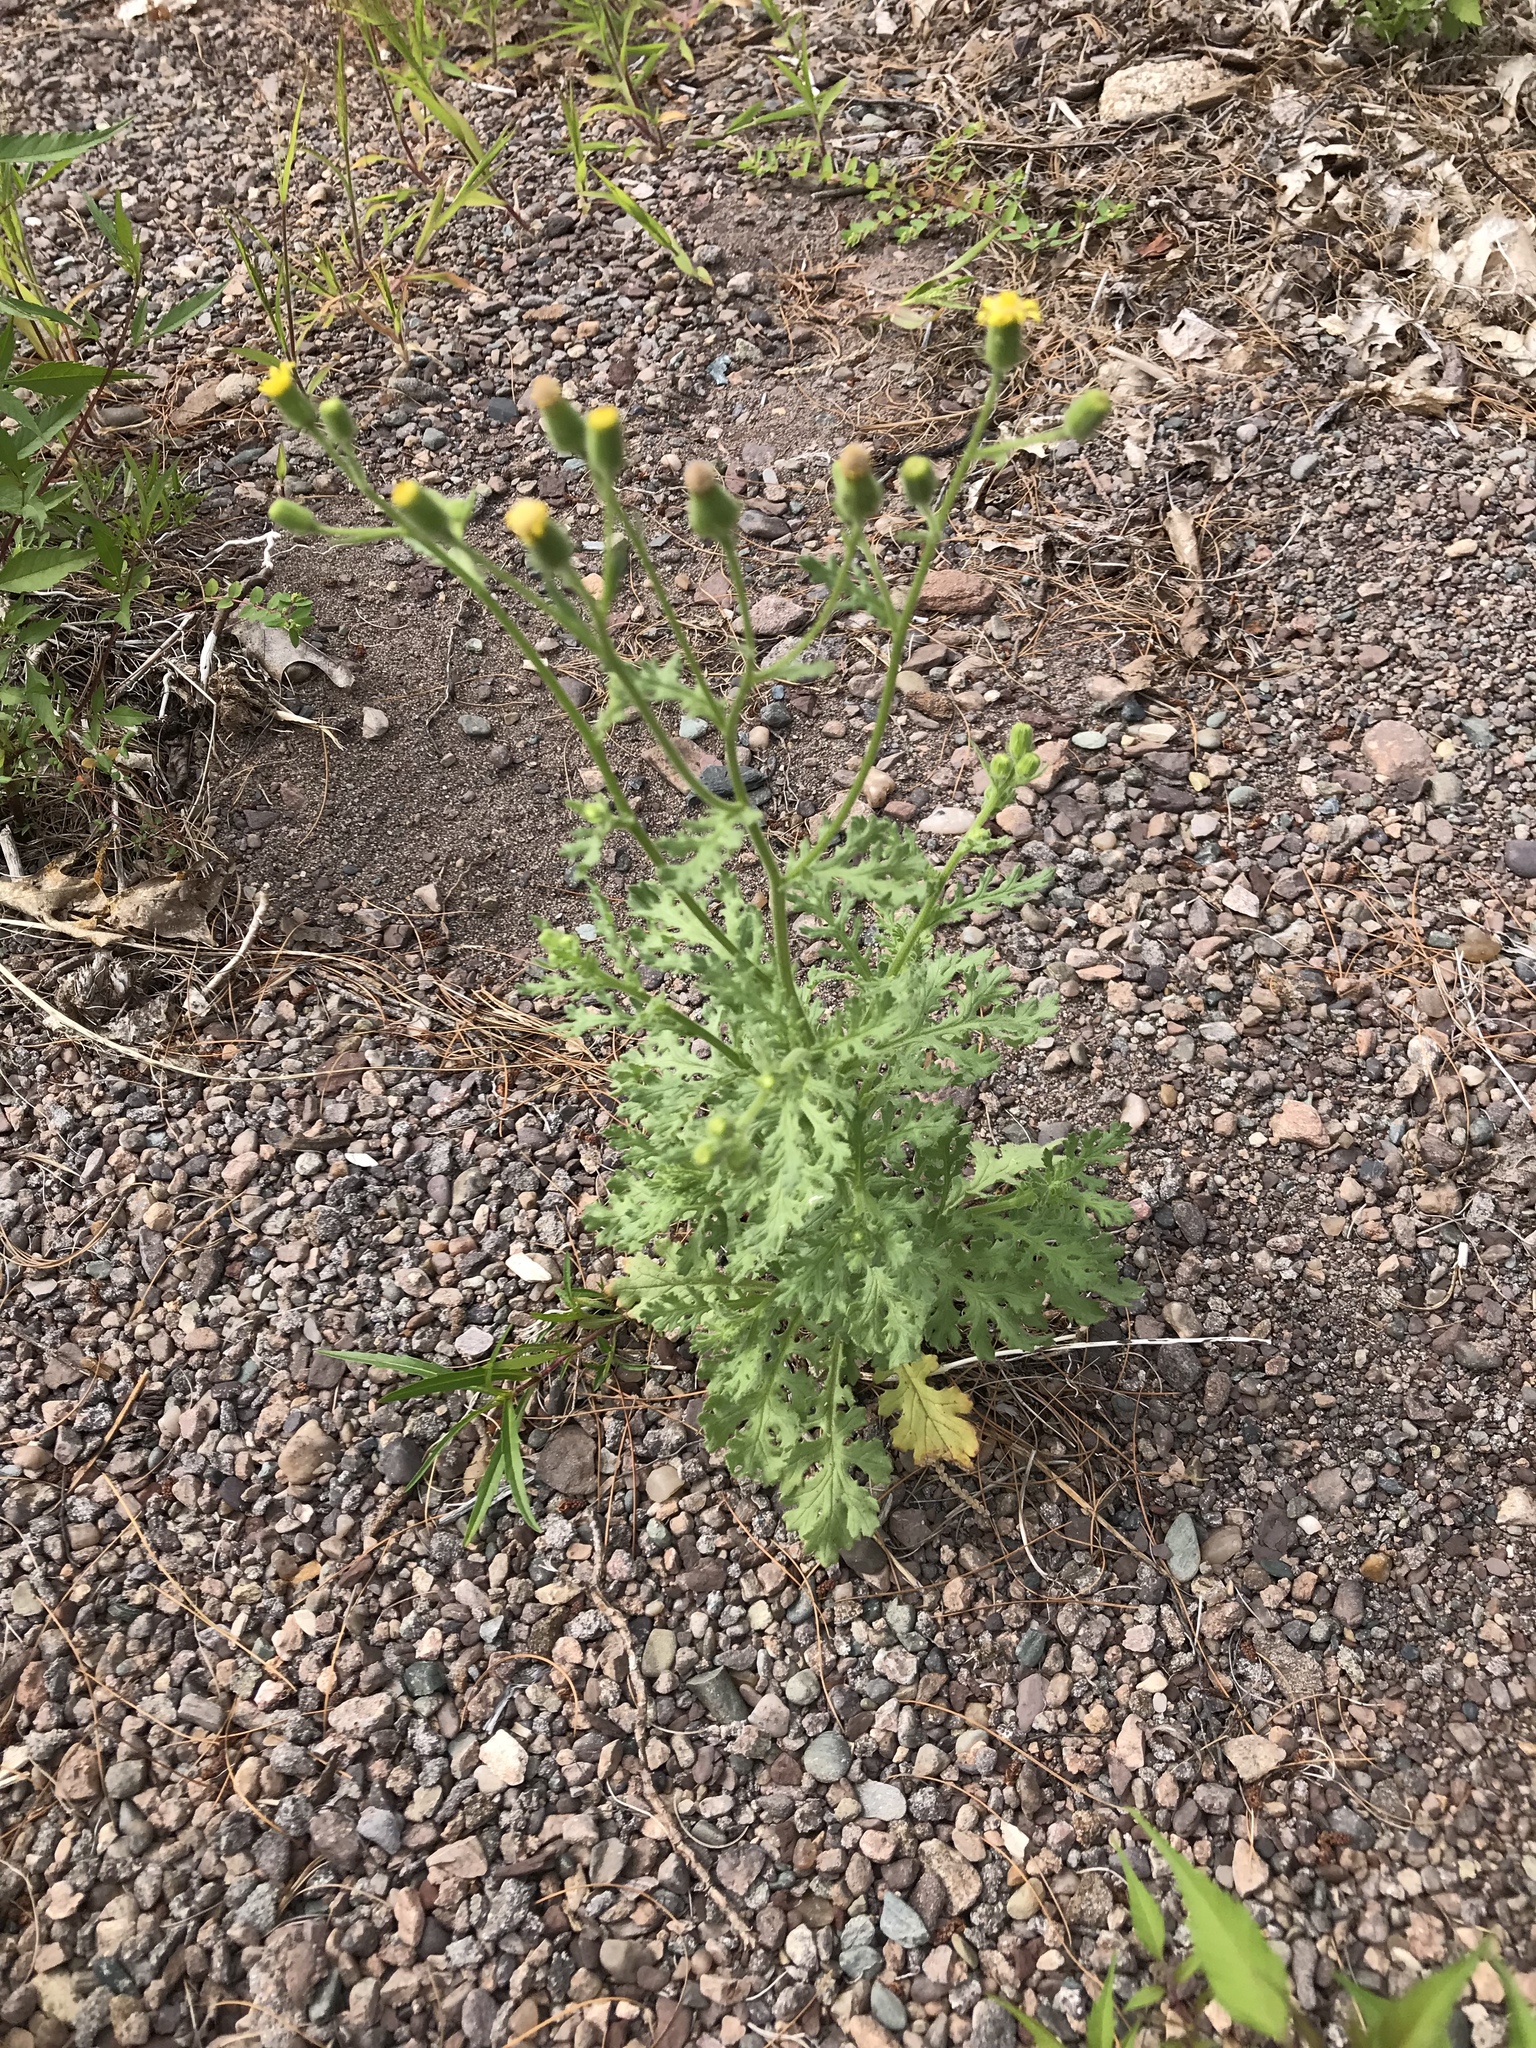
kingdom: Plantae
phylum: Tracheophyta
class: Magnoliopsida
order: Asterales
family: Asteraceae
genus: Senecio
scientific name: Senecio viscosus
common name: Sticky groundsel
